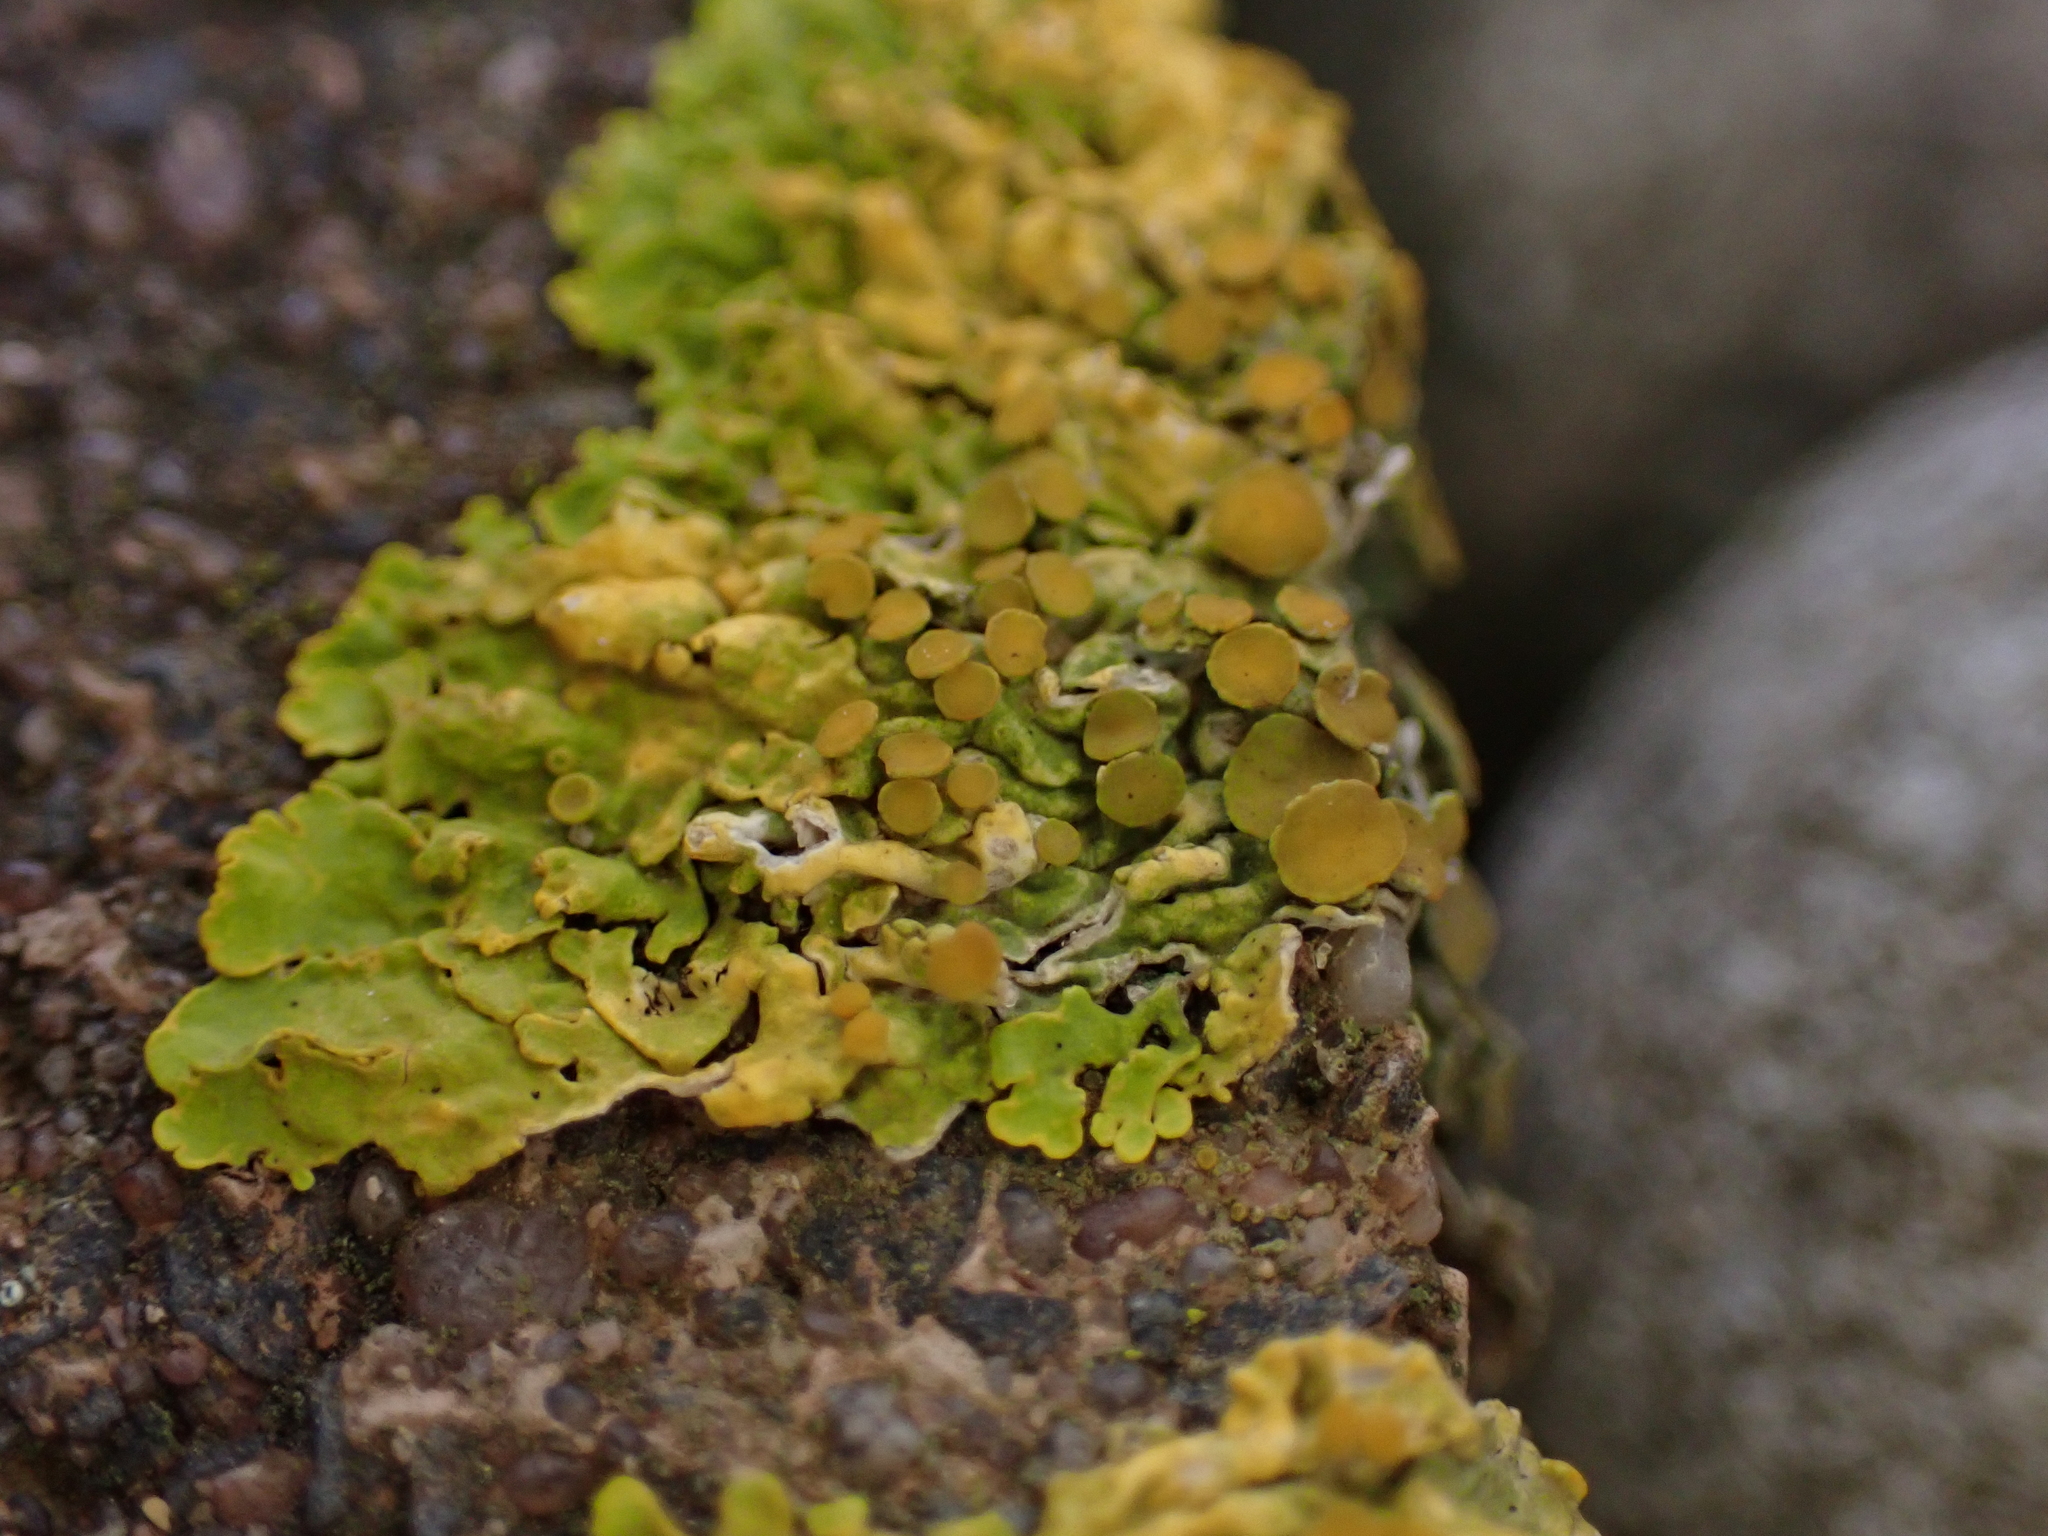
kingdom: Fungi
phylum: Ascomycota
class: Lecanoromycetes
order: Teloschistales
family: Teloschistaceae
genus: Xanthoria
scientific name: Xanthoria parietina
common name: Common orange lichen
